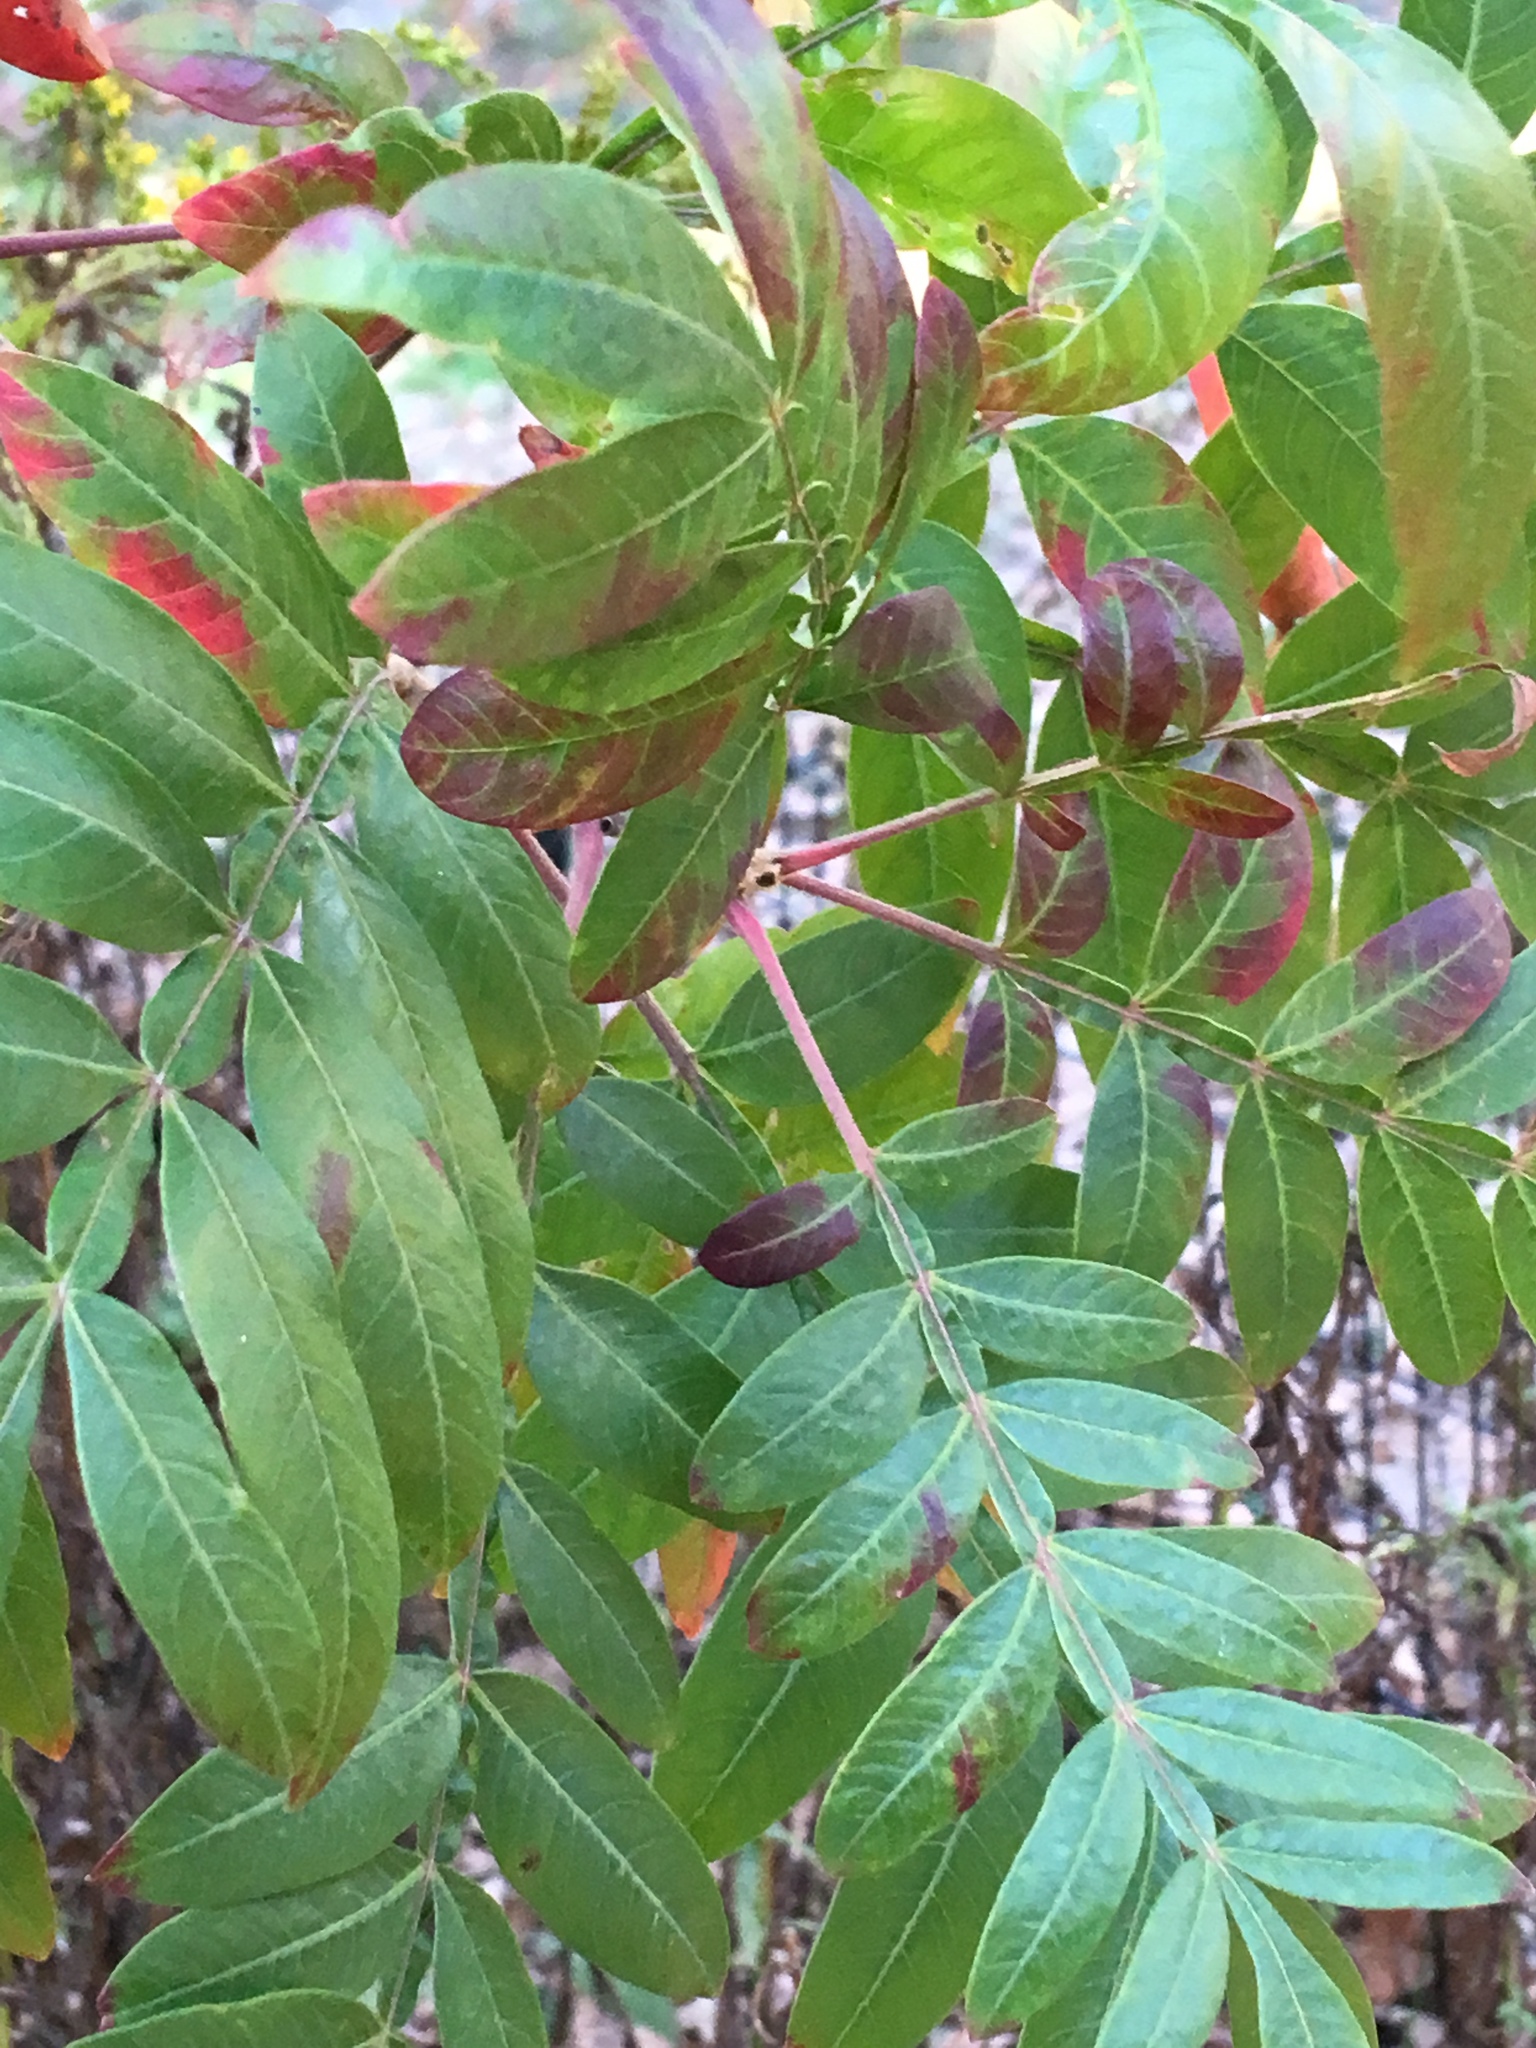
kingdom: Plantae
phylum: Tracheophyta
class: Magnoliopsida
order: Sapindales
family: Anacardiaceae
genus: Rhus
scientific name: Rhus copallina
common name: Shining sumac
